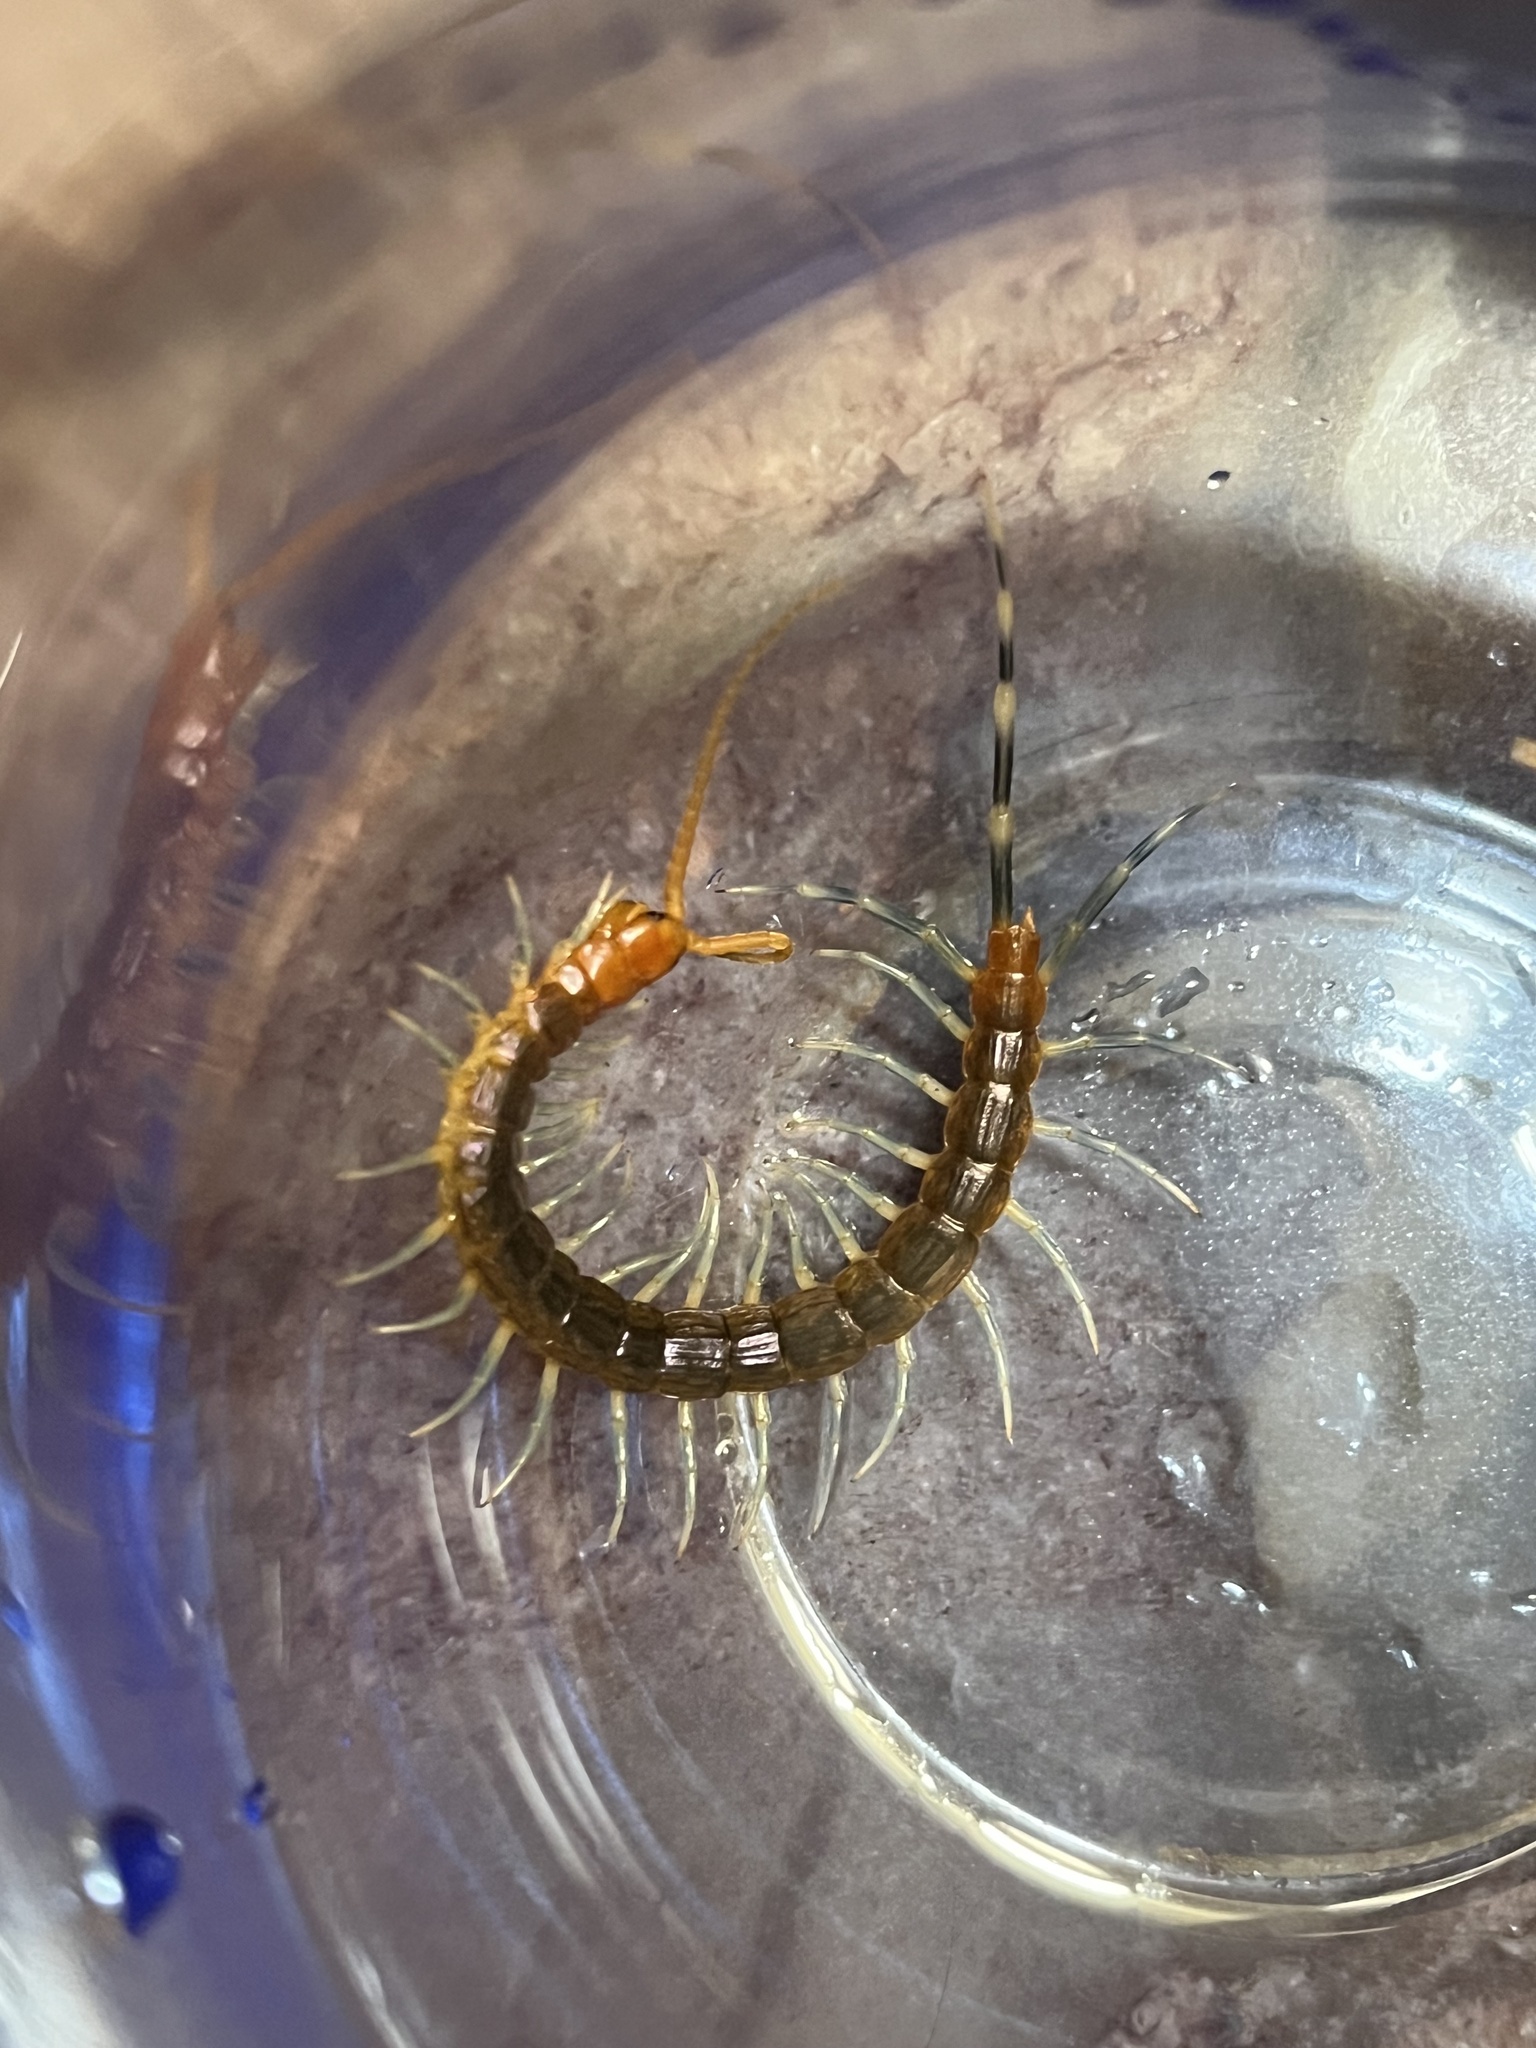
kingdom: Animalia
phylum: Arthropoda
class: Chilopoda
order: Scolopendromorpha
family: Scolopendridae
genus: Otostigmus
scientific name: Otostigmus scaber
